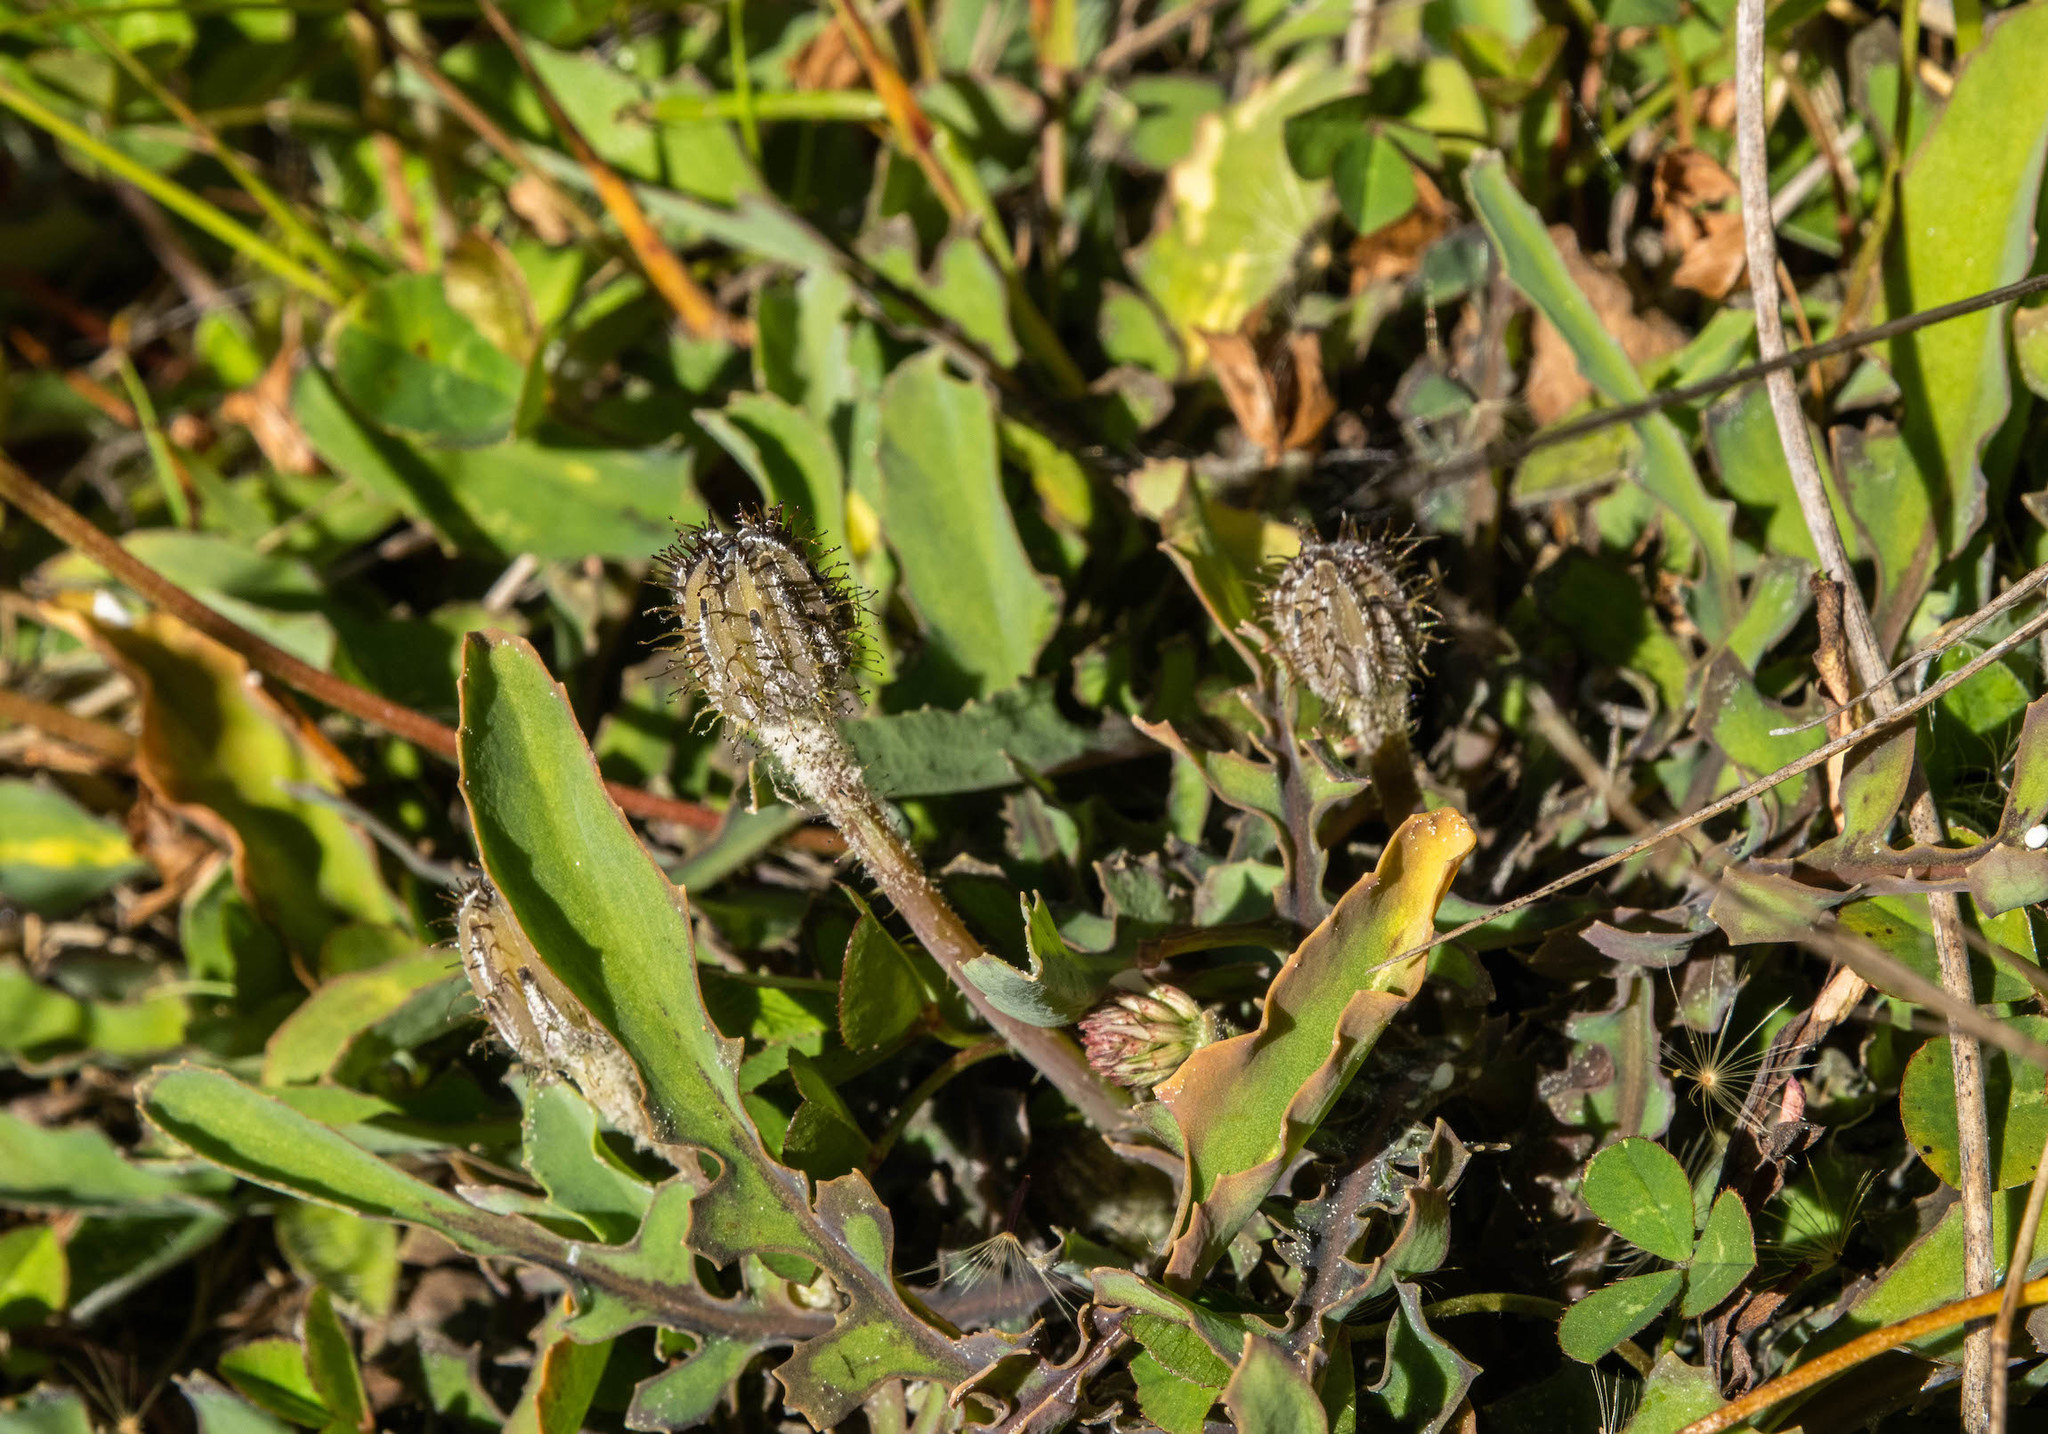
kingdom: Plantae
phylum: Tracheophyta
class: Magnoliopsida
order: Asterales
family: Asteraceae
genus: Sonchus
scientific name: Sonchus novae-zelandiae
